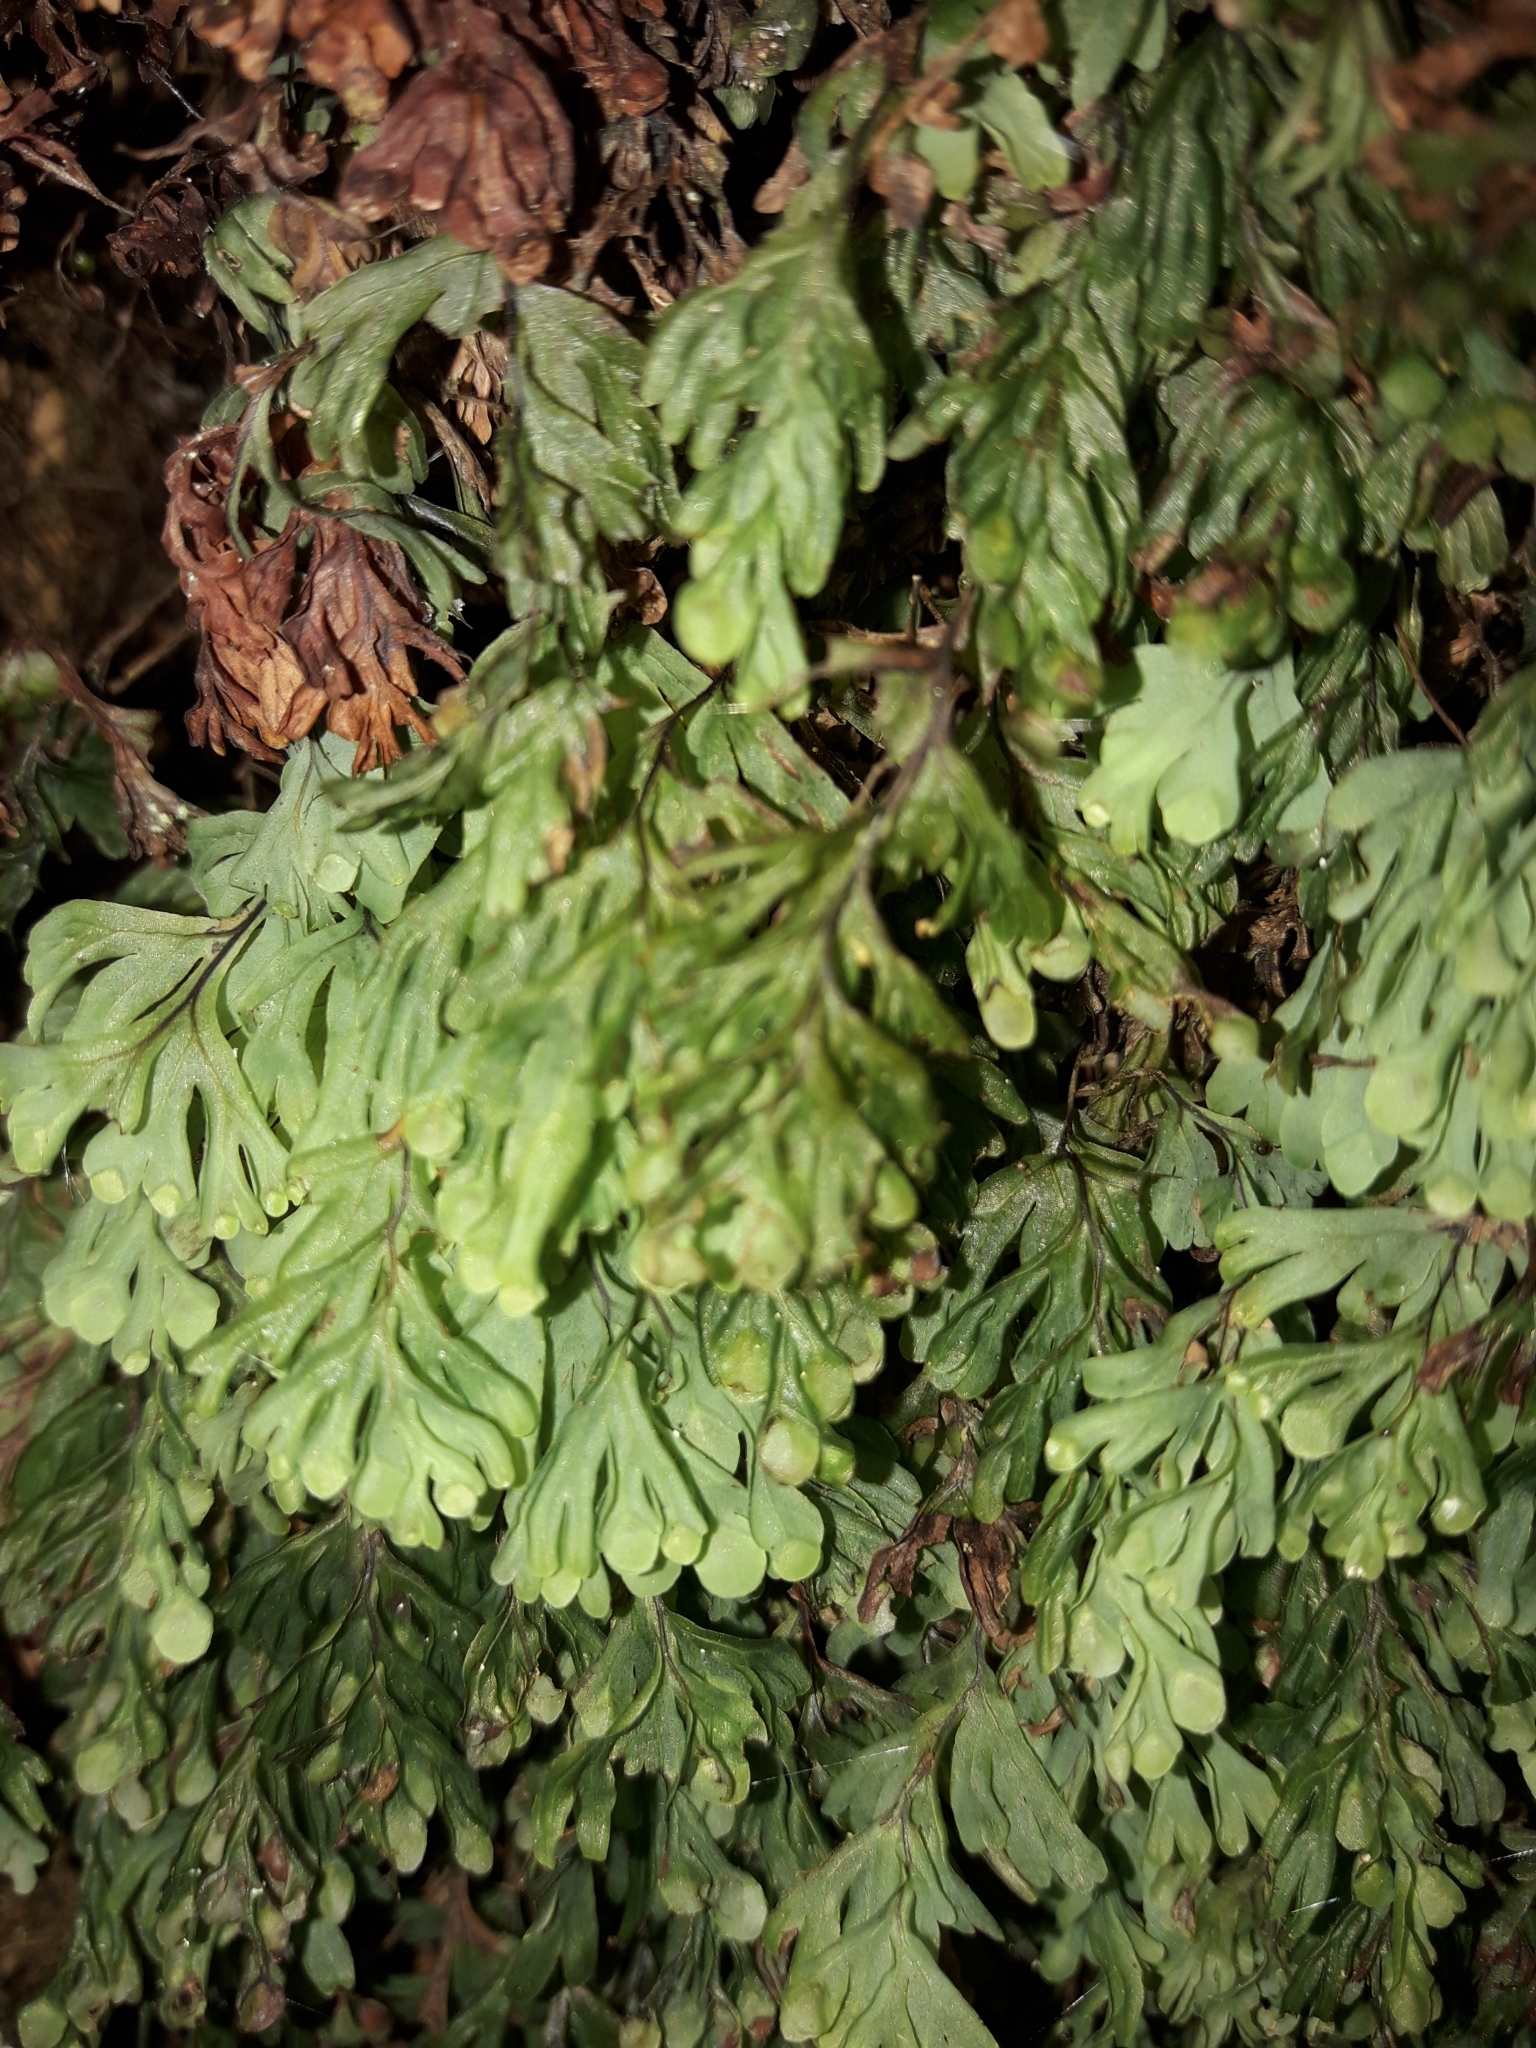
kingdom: Plantae
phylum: Tracheophyta
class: Polypodiopsida
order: Hymenophyllales
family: Hymenophyllaceae
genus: Hymenophyllum
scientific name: Hymenophyllum rarum
